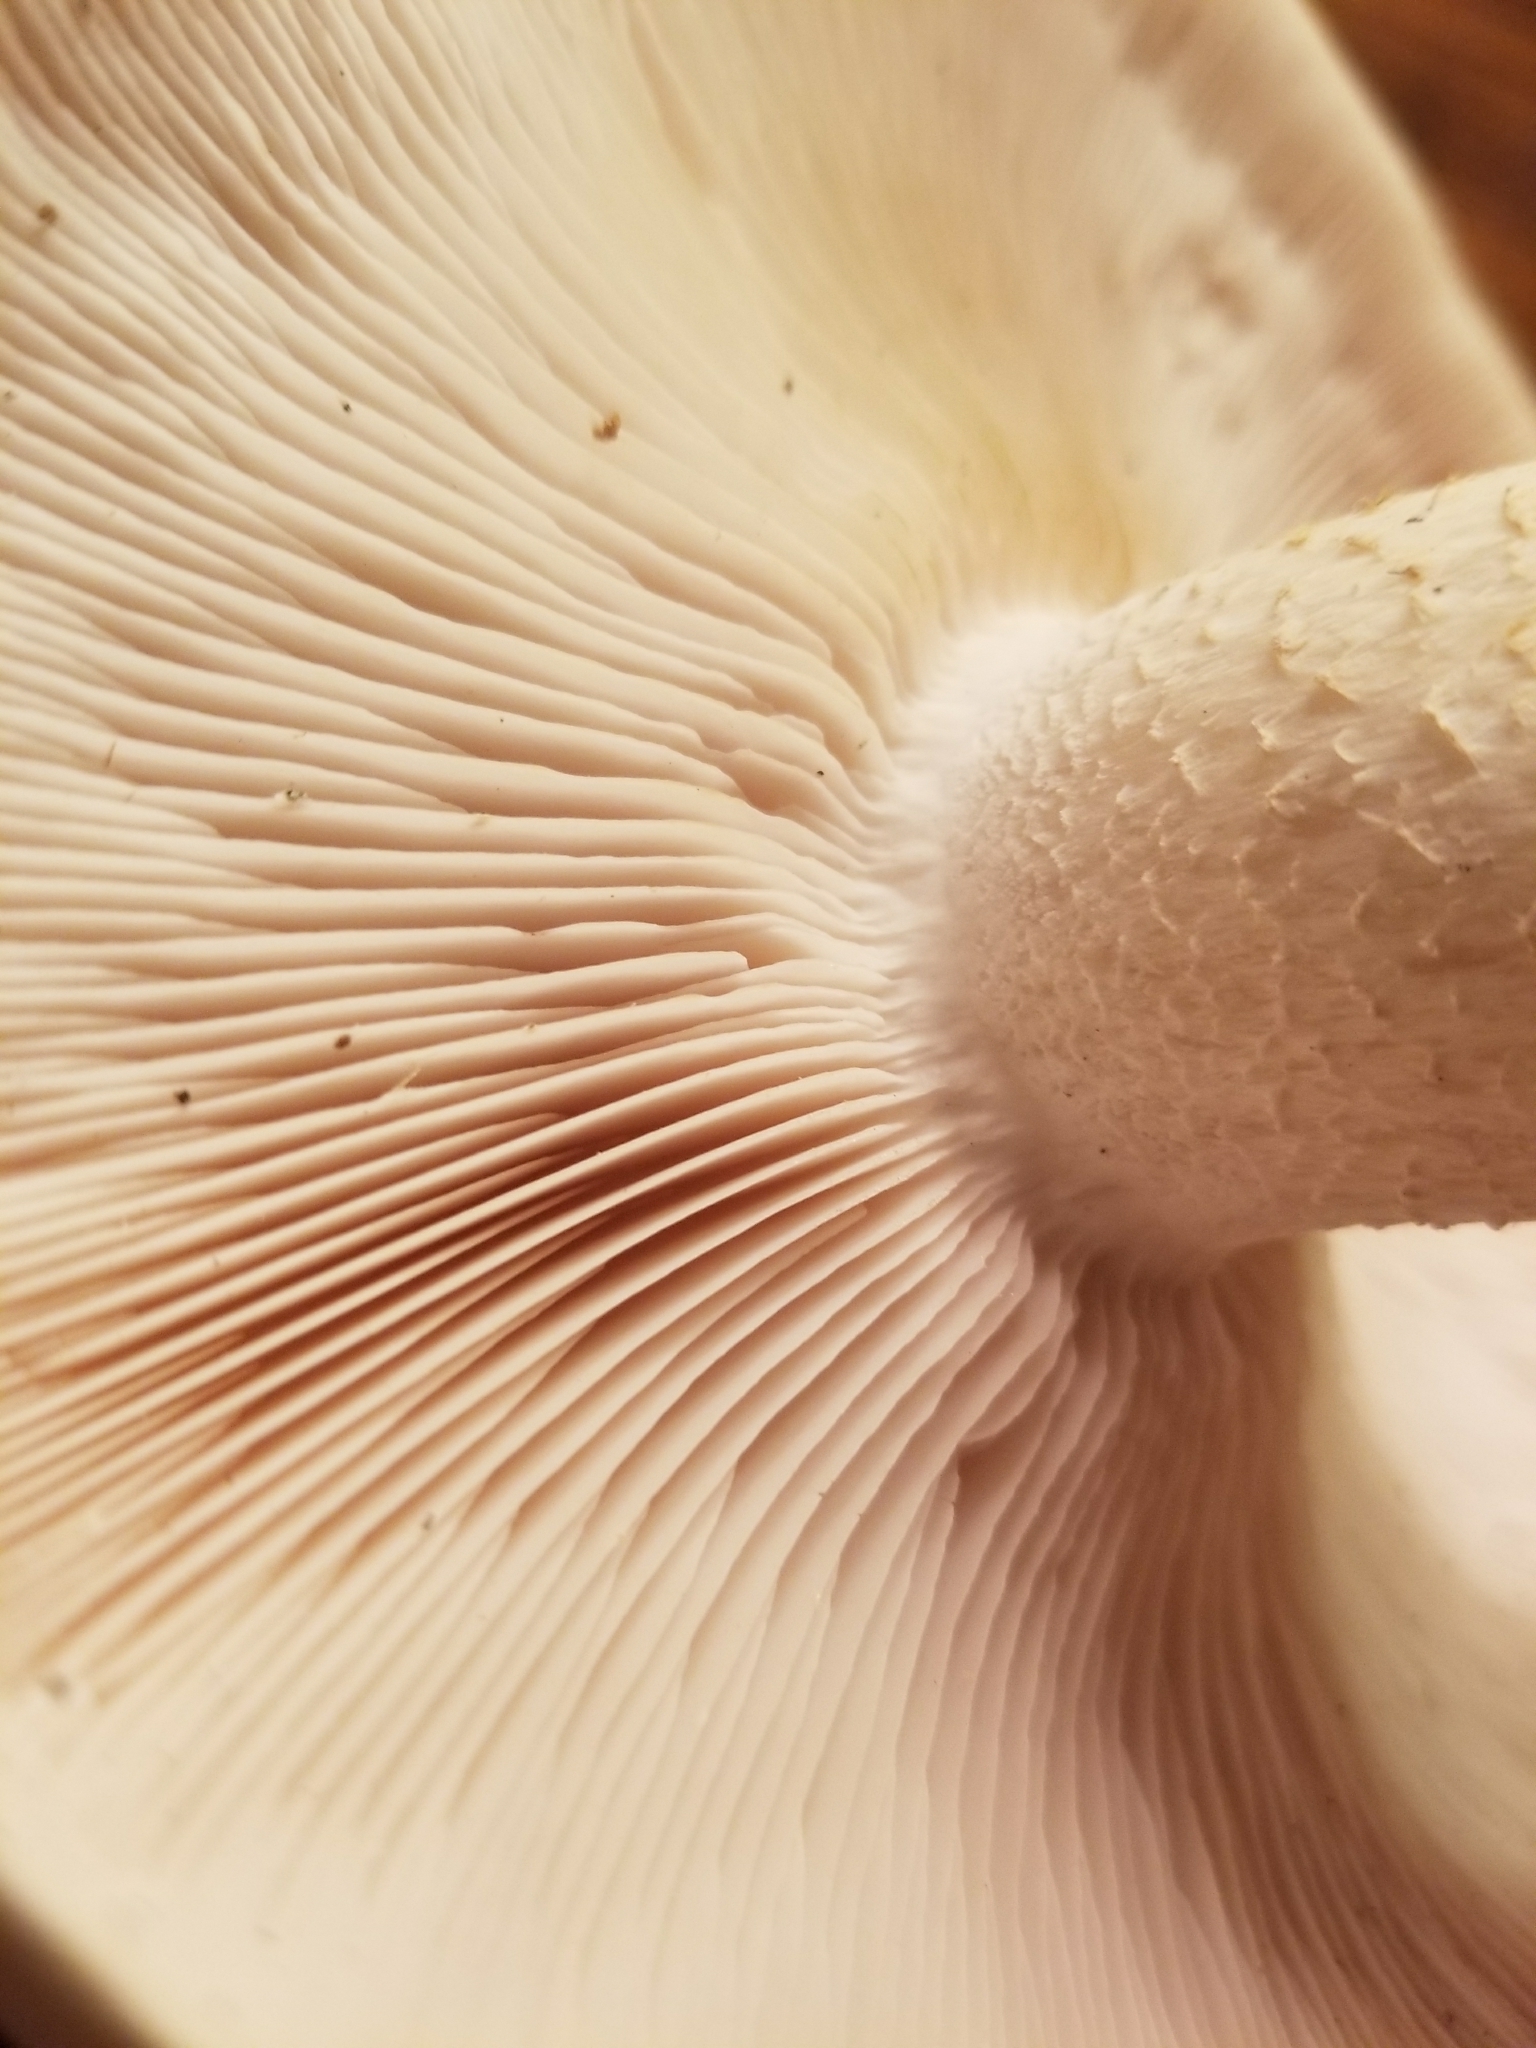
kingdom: Fungi
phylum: Basidiomycota
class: Agaricomycetes
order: Agaricales
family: Callistosporiaceae
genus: Macrocybe
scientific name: Macrocybe titans
